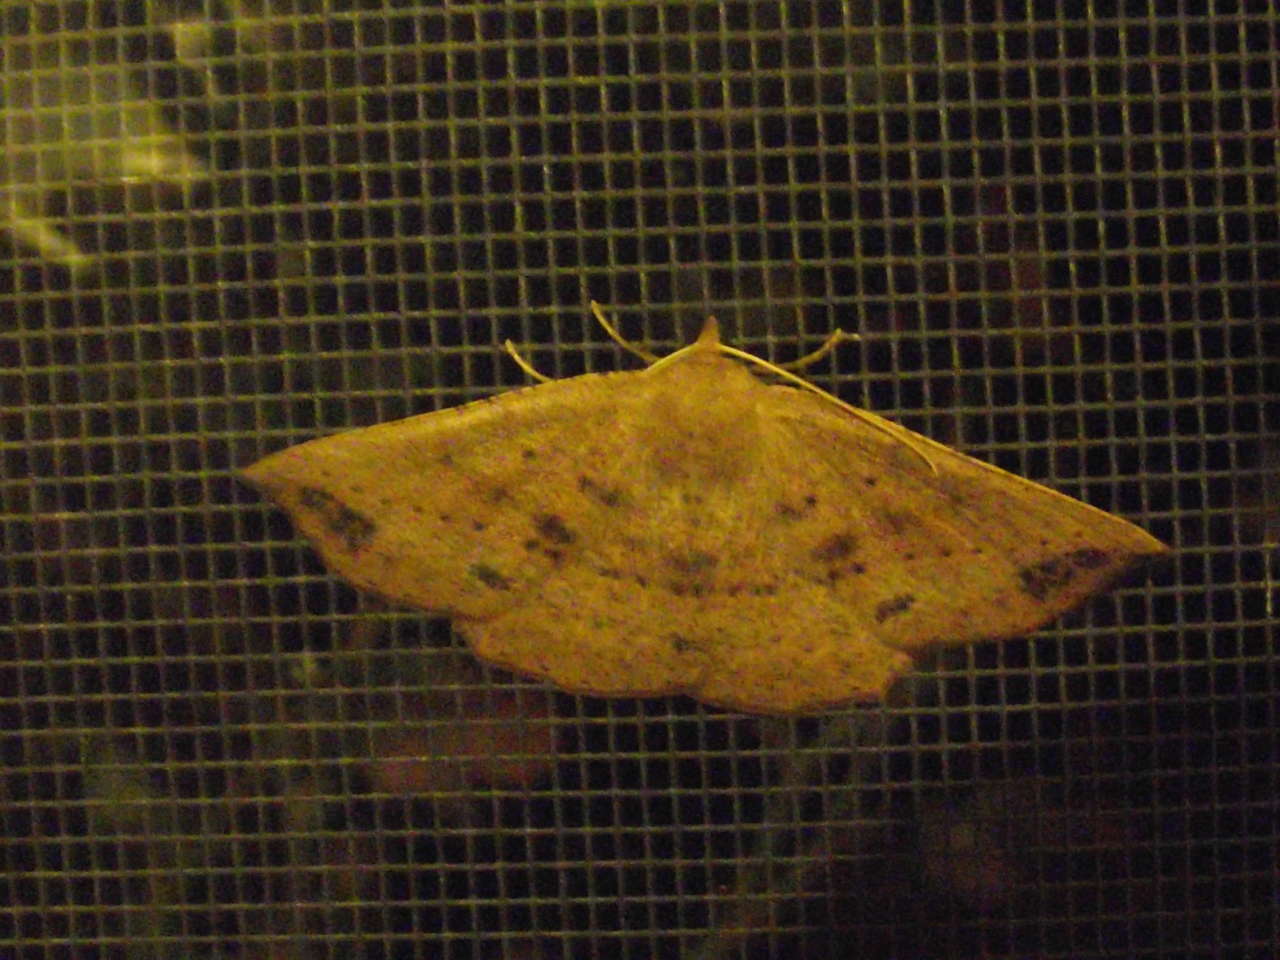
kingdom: Animalia
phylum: Arthropoda
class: Insecta
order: Lepidoptera
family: Geometridae
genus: Idiodes
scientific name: Idiodes apicata
